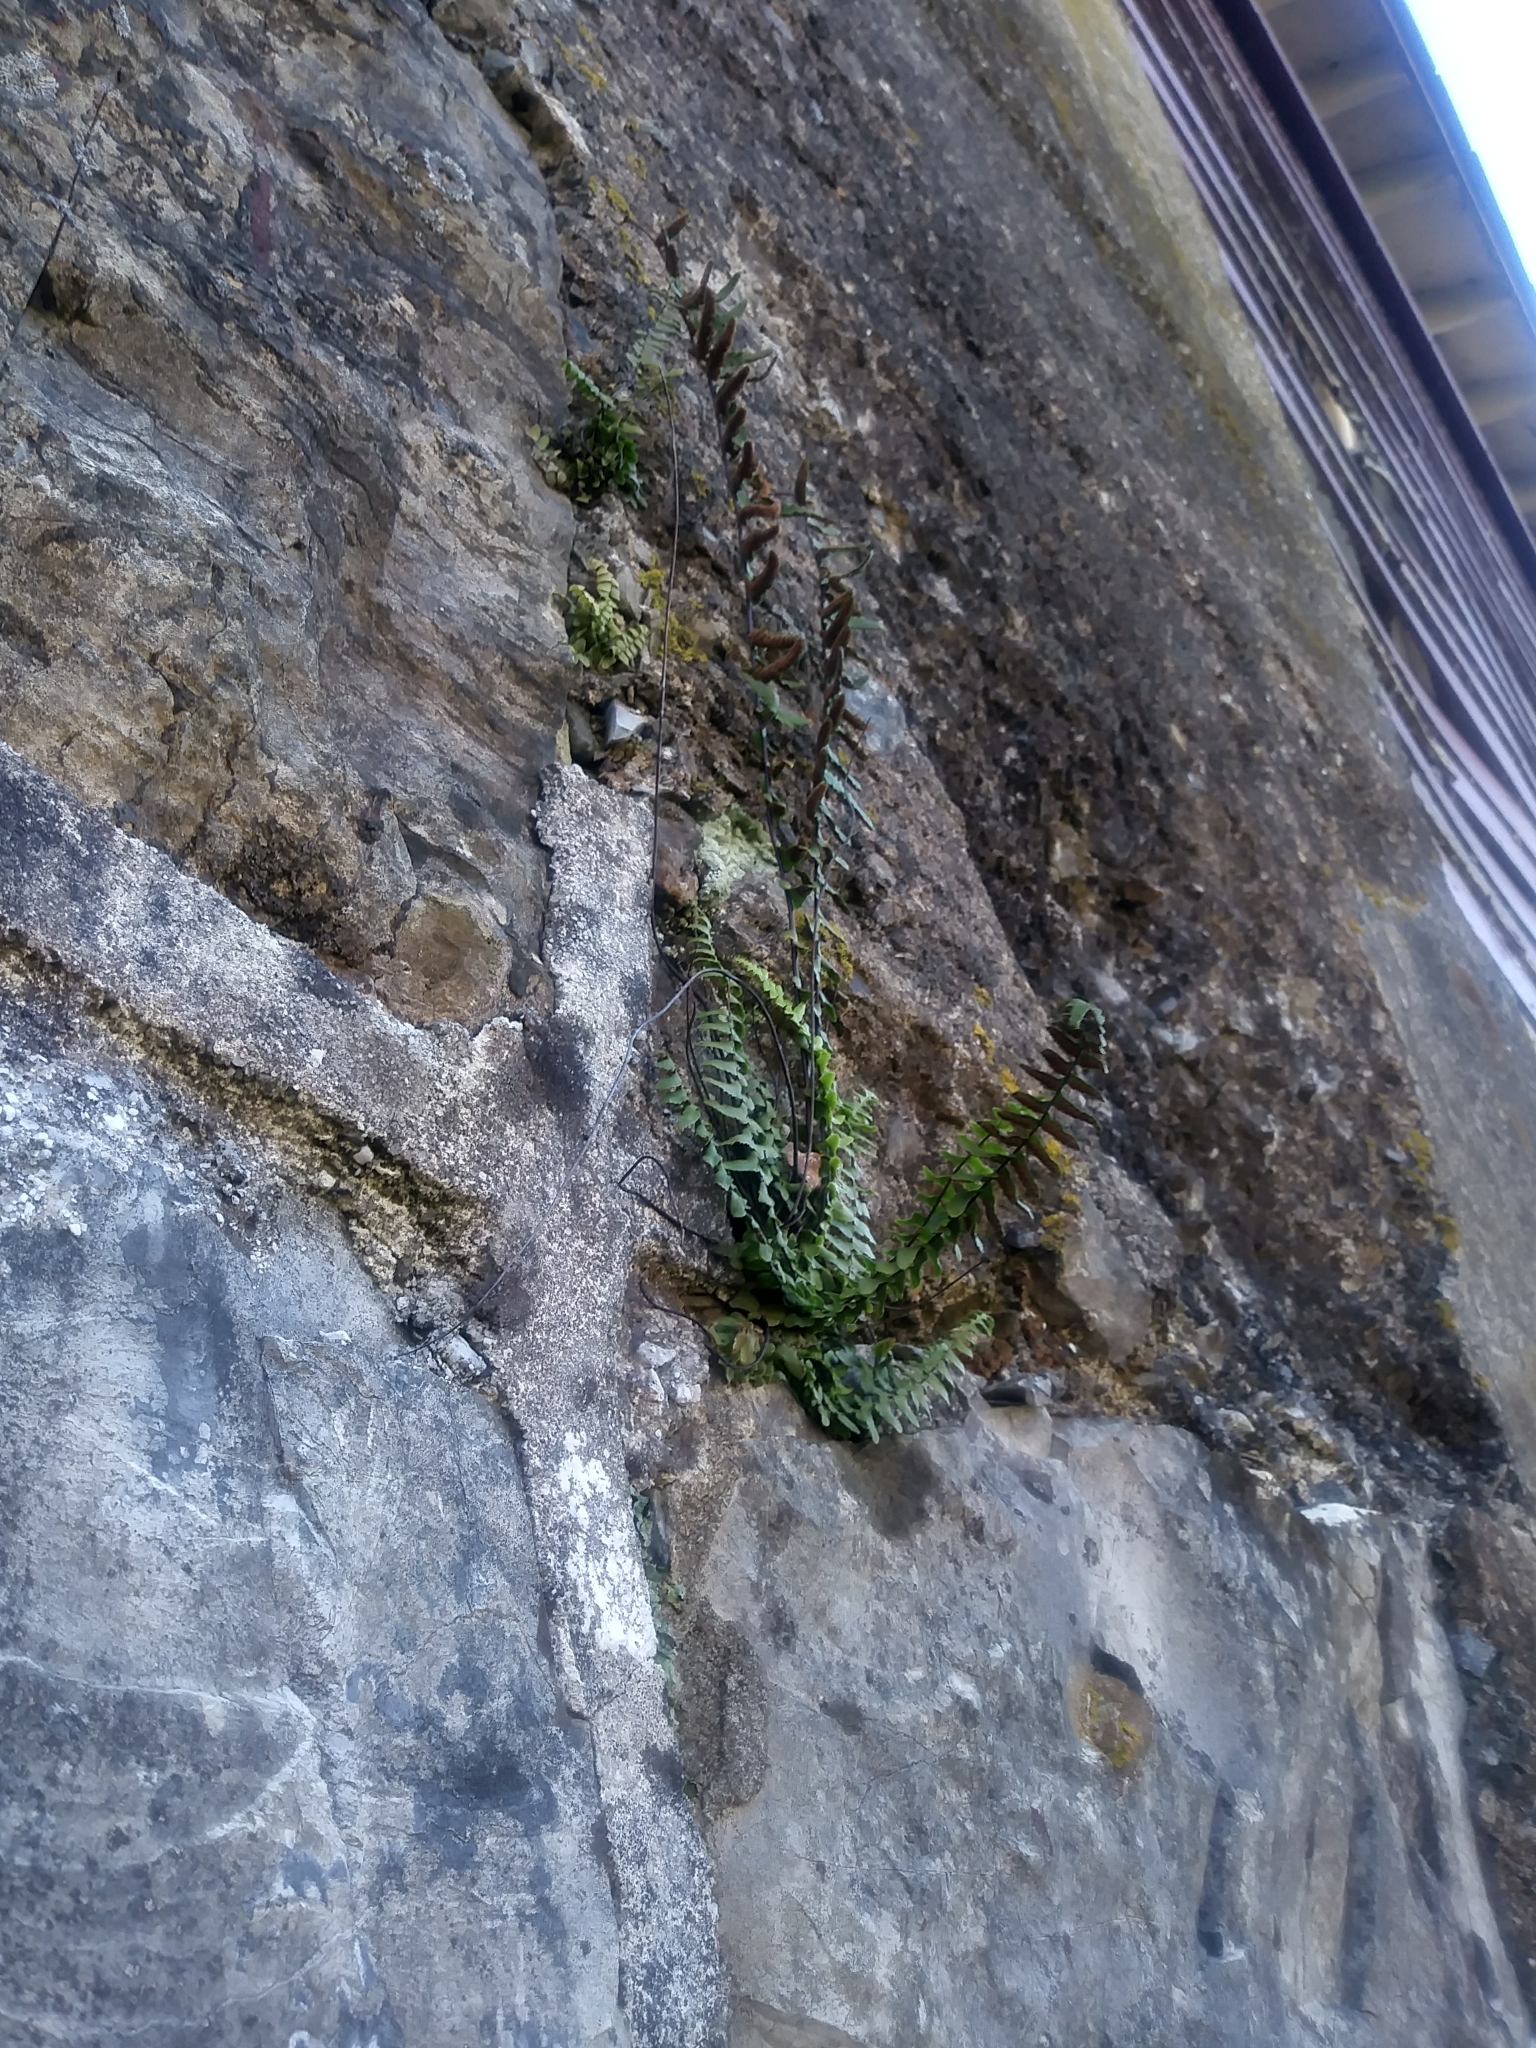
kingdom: Plantae
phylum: Tracheophyta
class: Polypodiopsida
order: Polypodiales
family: Aspleniaceae
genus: Asplenium
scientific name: Asplenium platyneuron
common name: Ebony spleenwort
